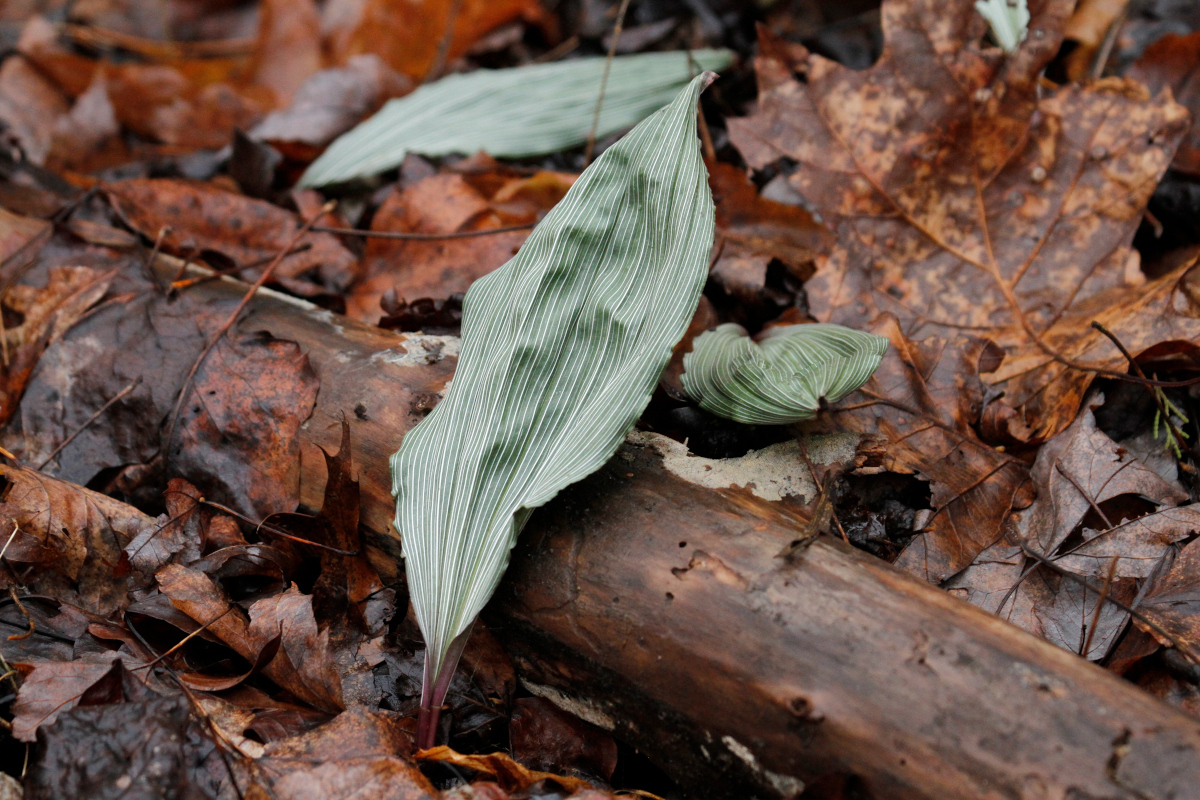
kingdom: Plantae
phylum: Tracheophyta
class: Liliopsida
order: Asparagales
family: Orchidaceae
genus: Aplectrum
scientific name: Aplectrum hyemale
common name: Adam-and-eve
